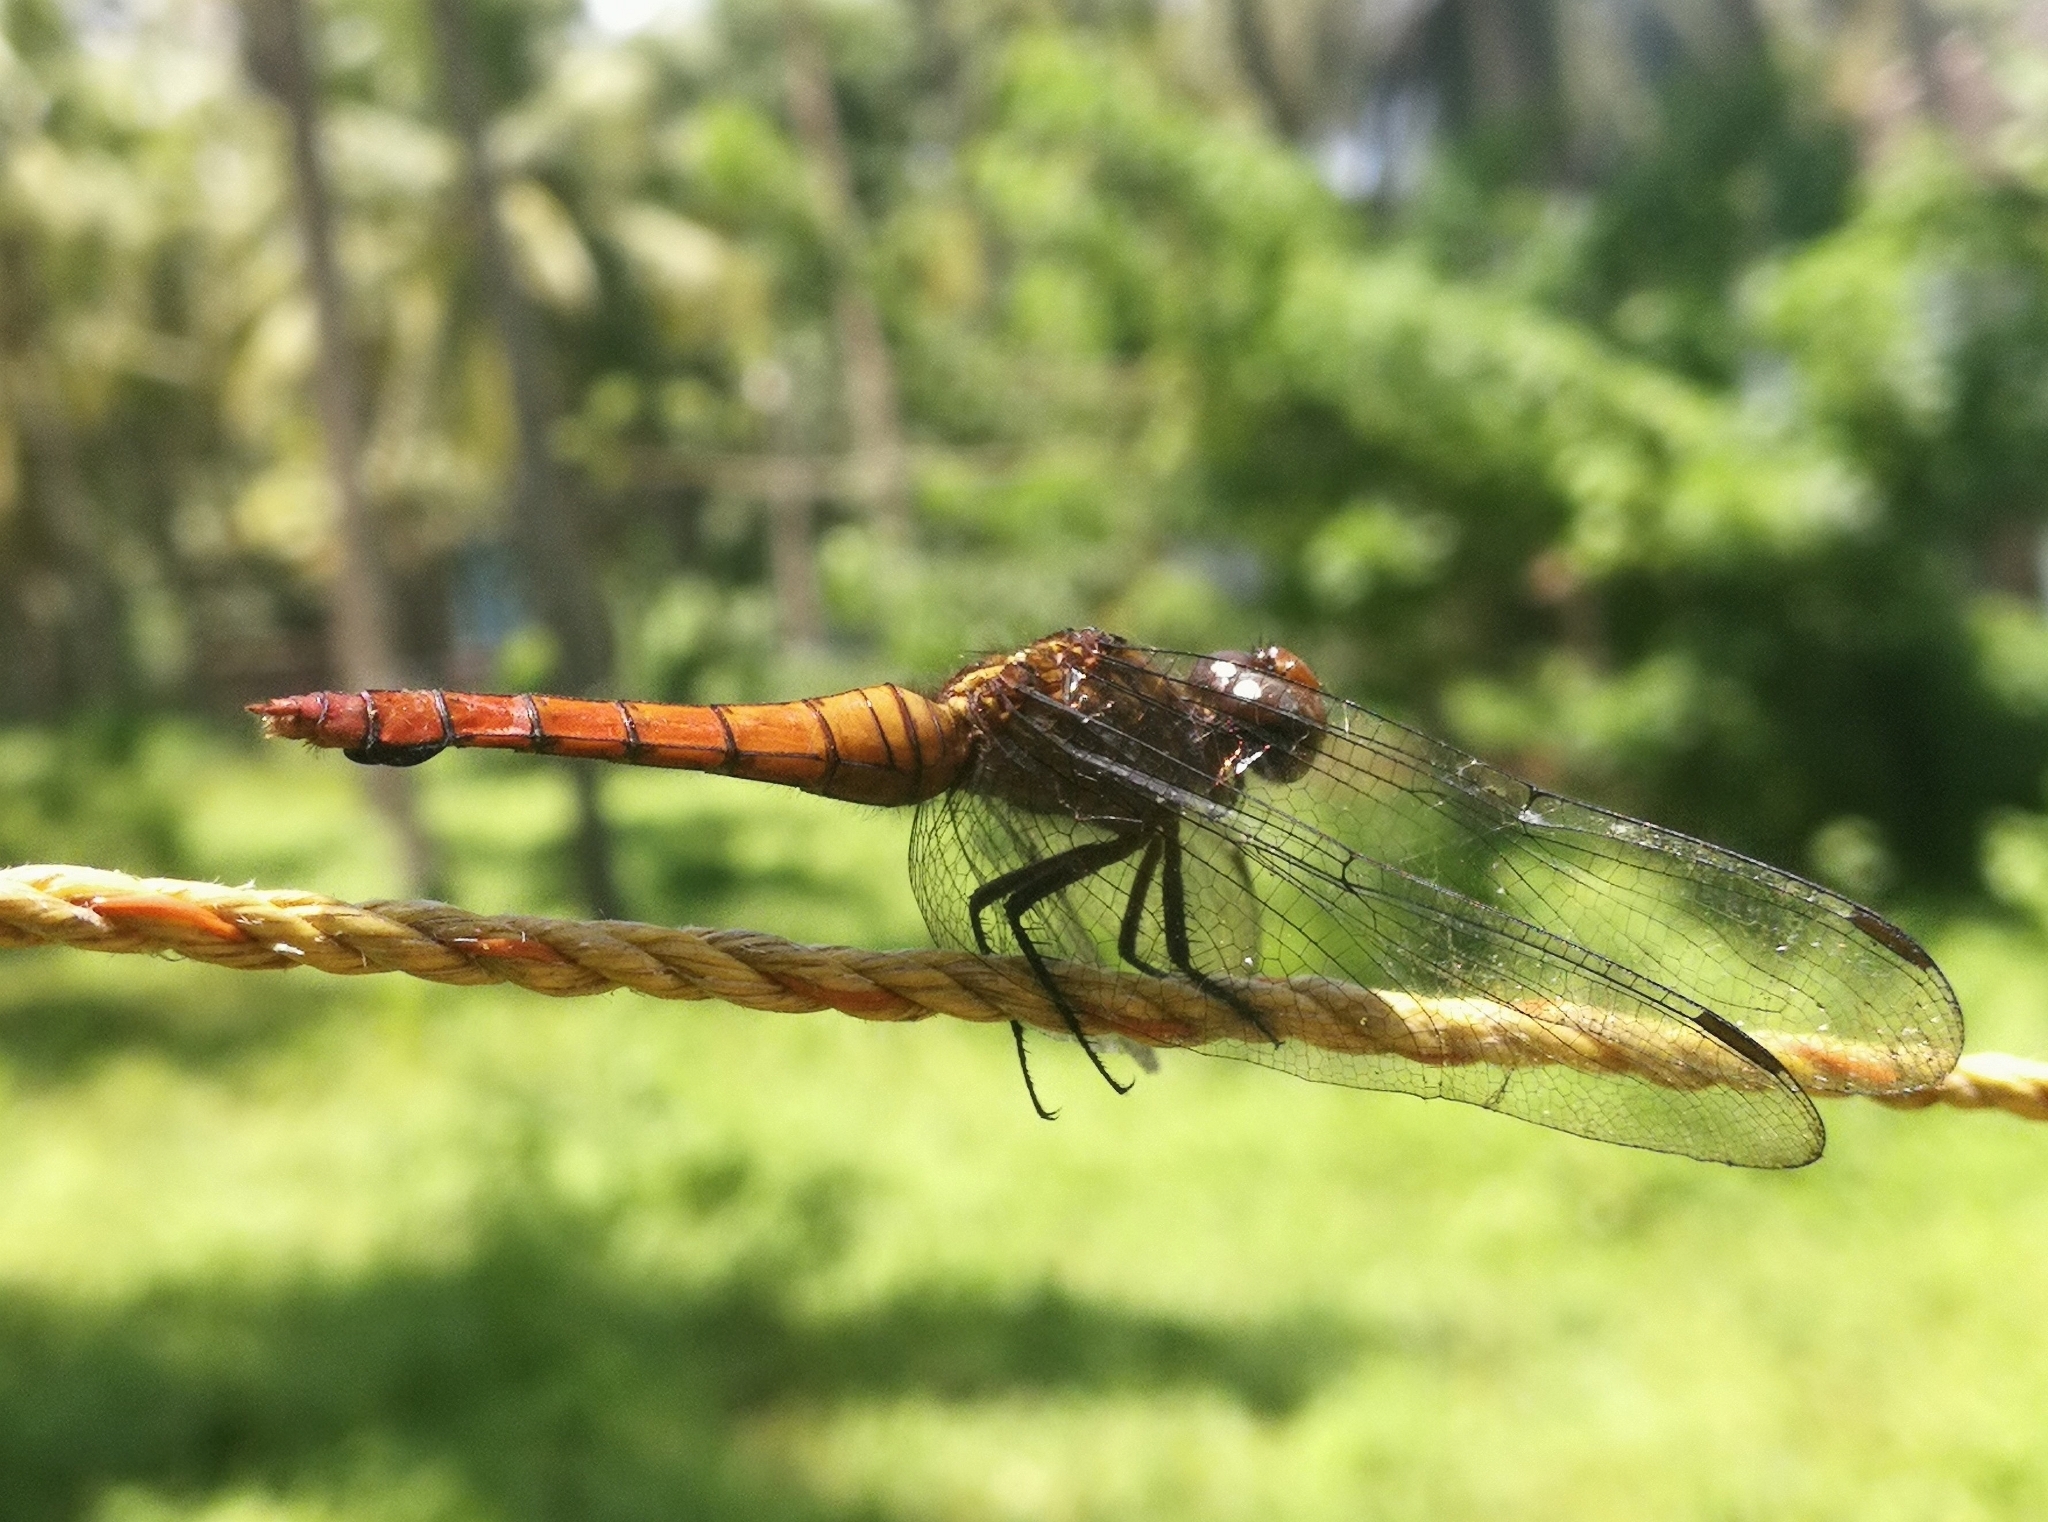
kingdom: Animalia
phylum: Arthropoda
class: Insecta
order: Odonata
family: Libellulidae
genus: Orthetrum
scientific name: Orthetrum chrysis
